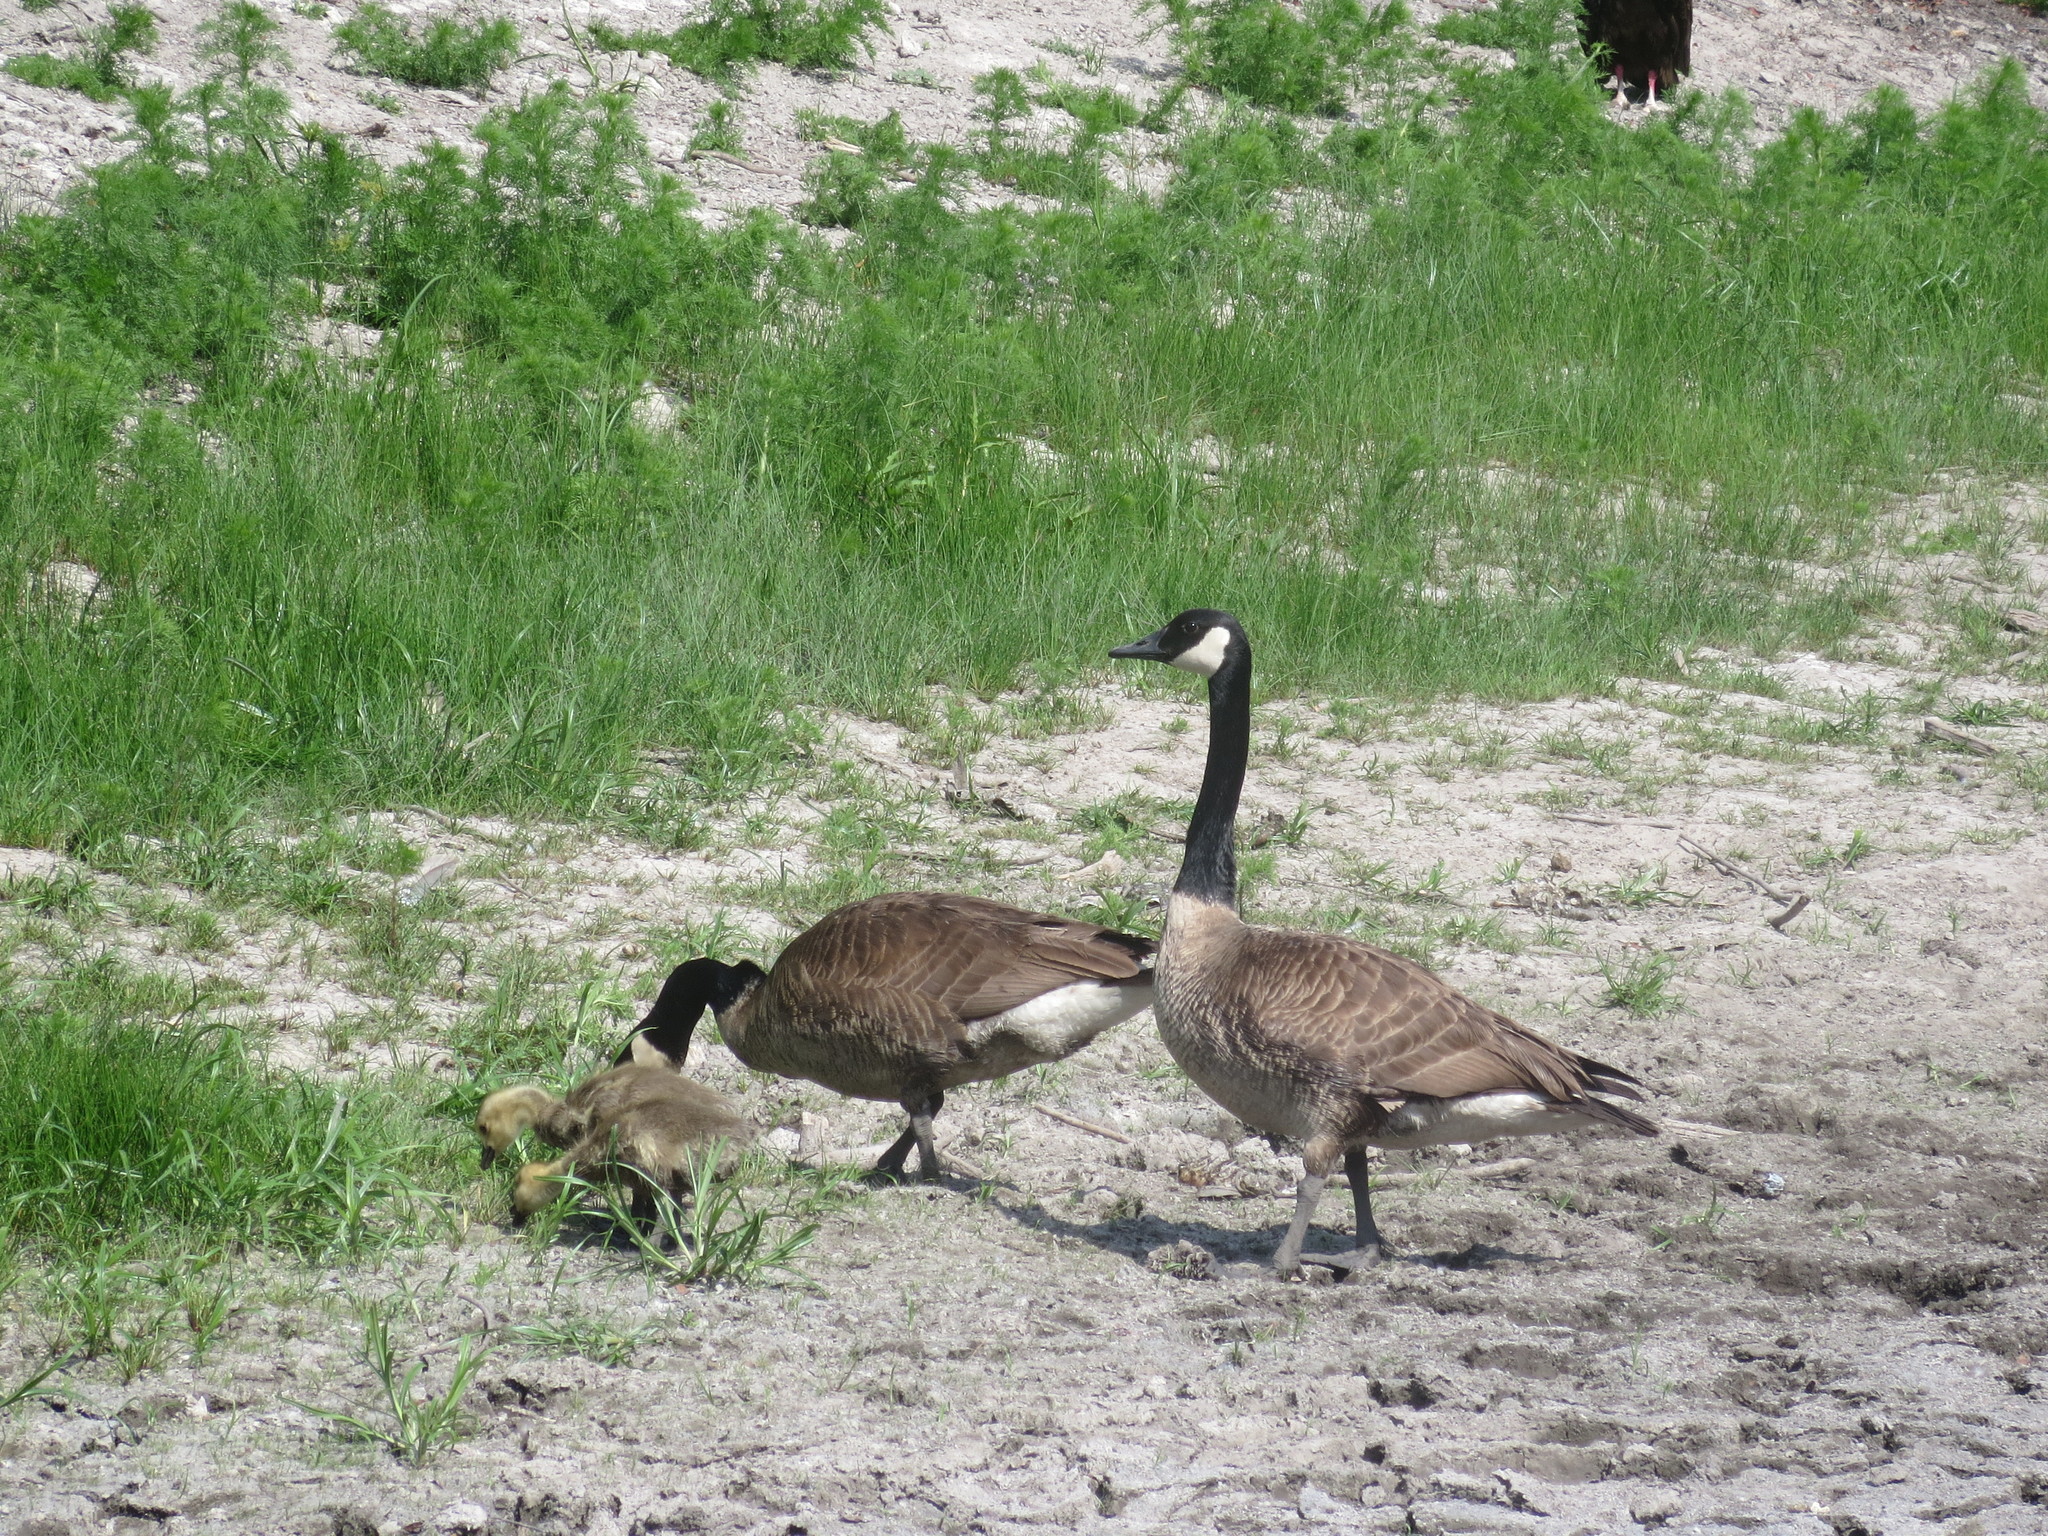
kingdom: Animalia
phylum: Chordata
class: Aves
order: Anseriformes
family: Anatidae
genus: Branta
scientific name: Branta canadensis
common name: Canada goose
